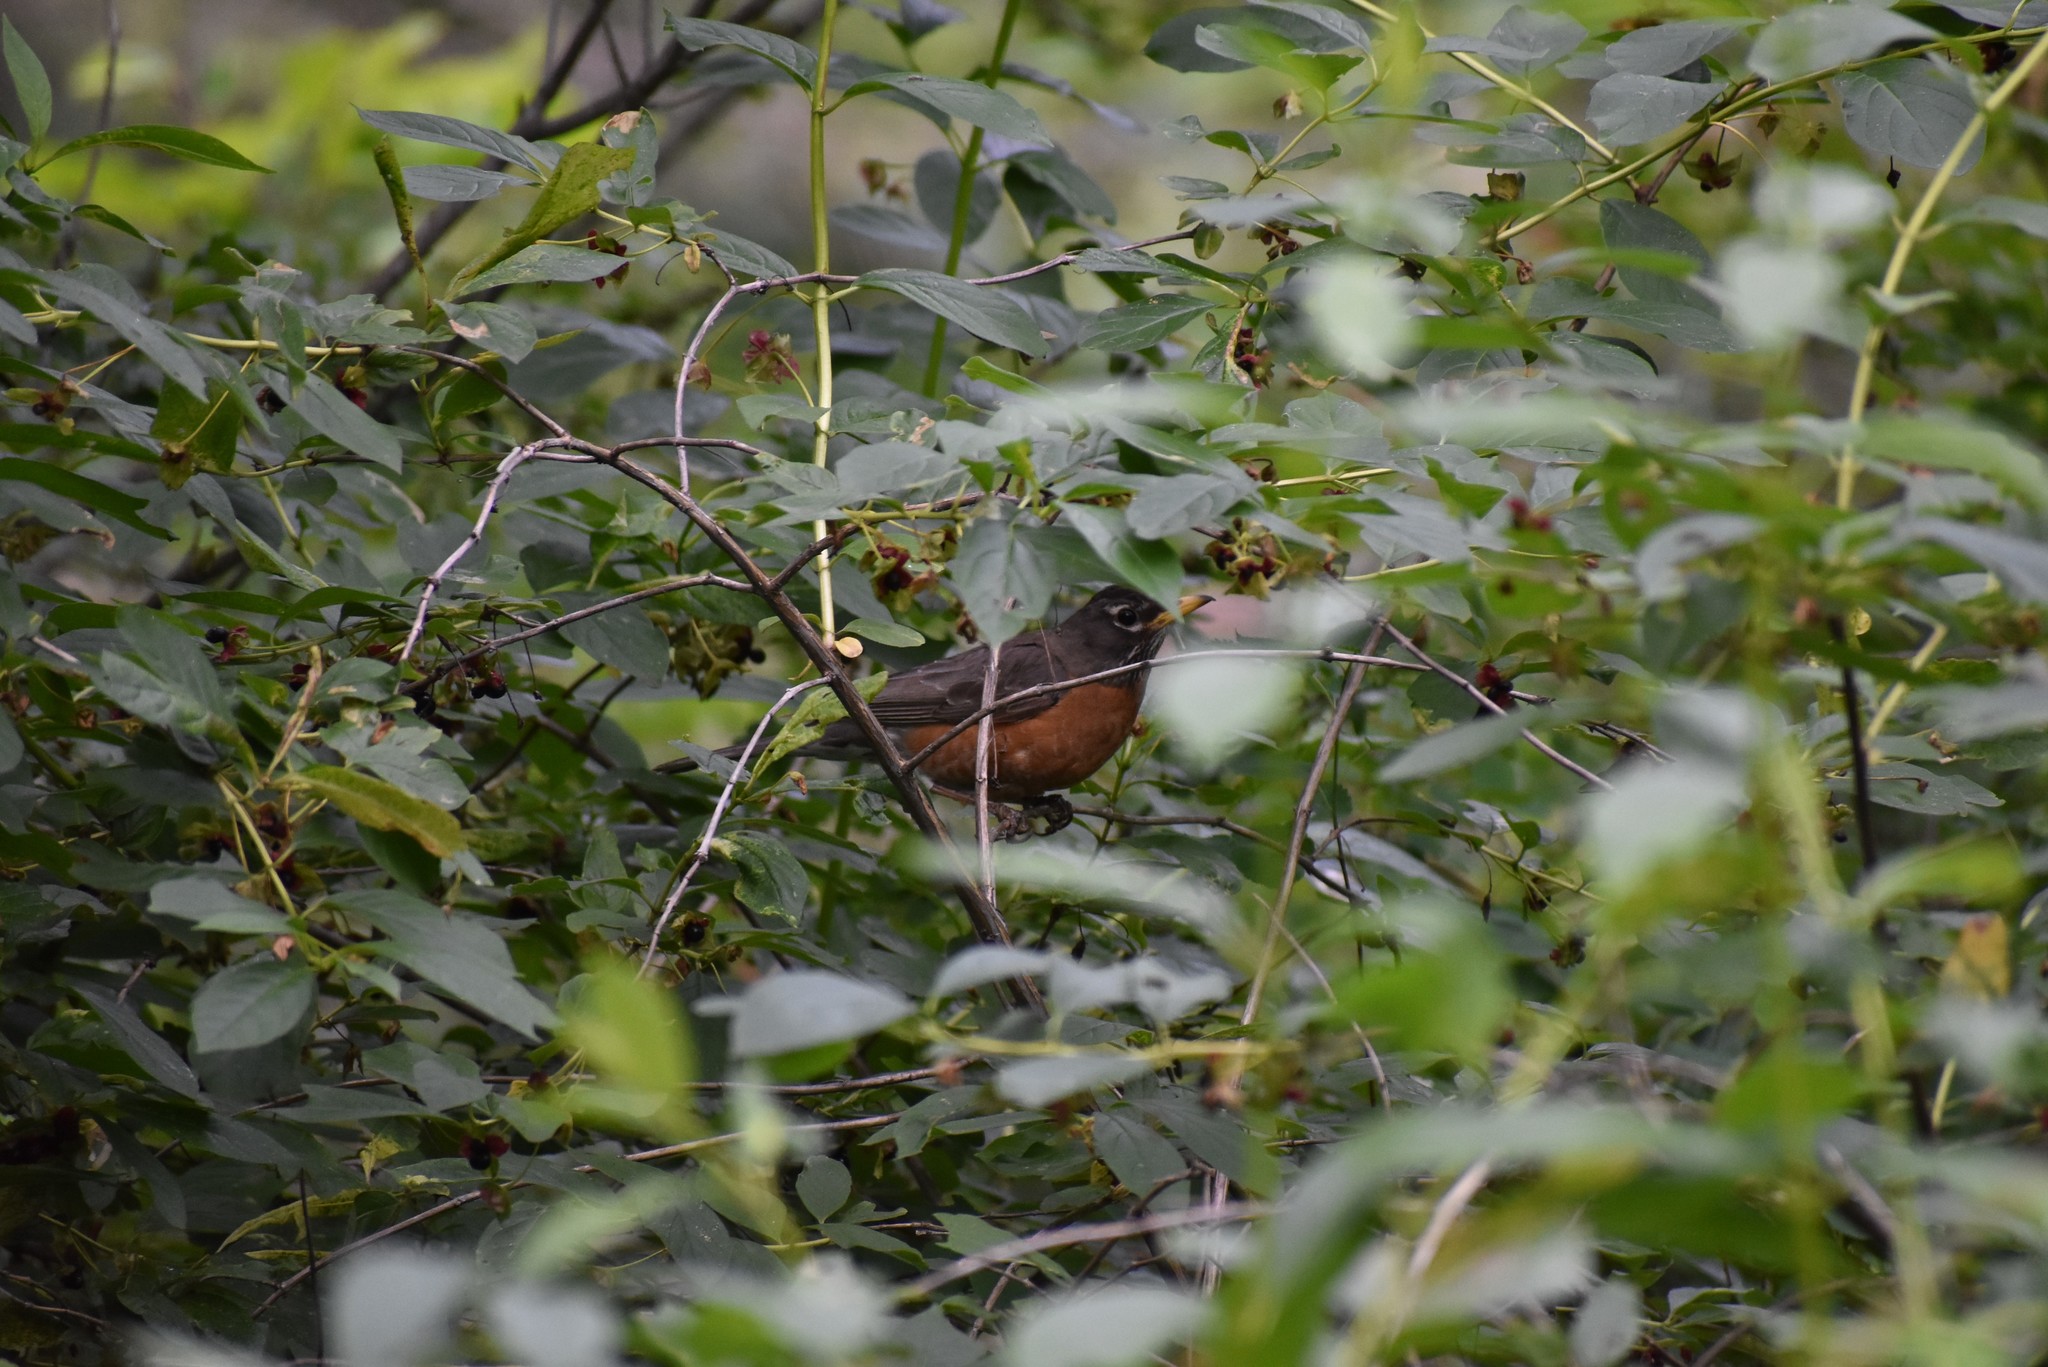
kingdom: Animalia
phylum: Chordata
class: Aves
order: Passeriformes
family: Turdidae
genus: Turdus
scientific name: Turdus migratorius
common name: American robin
